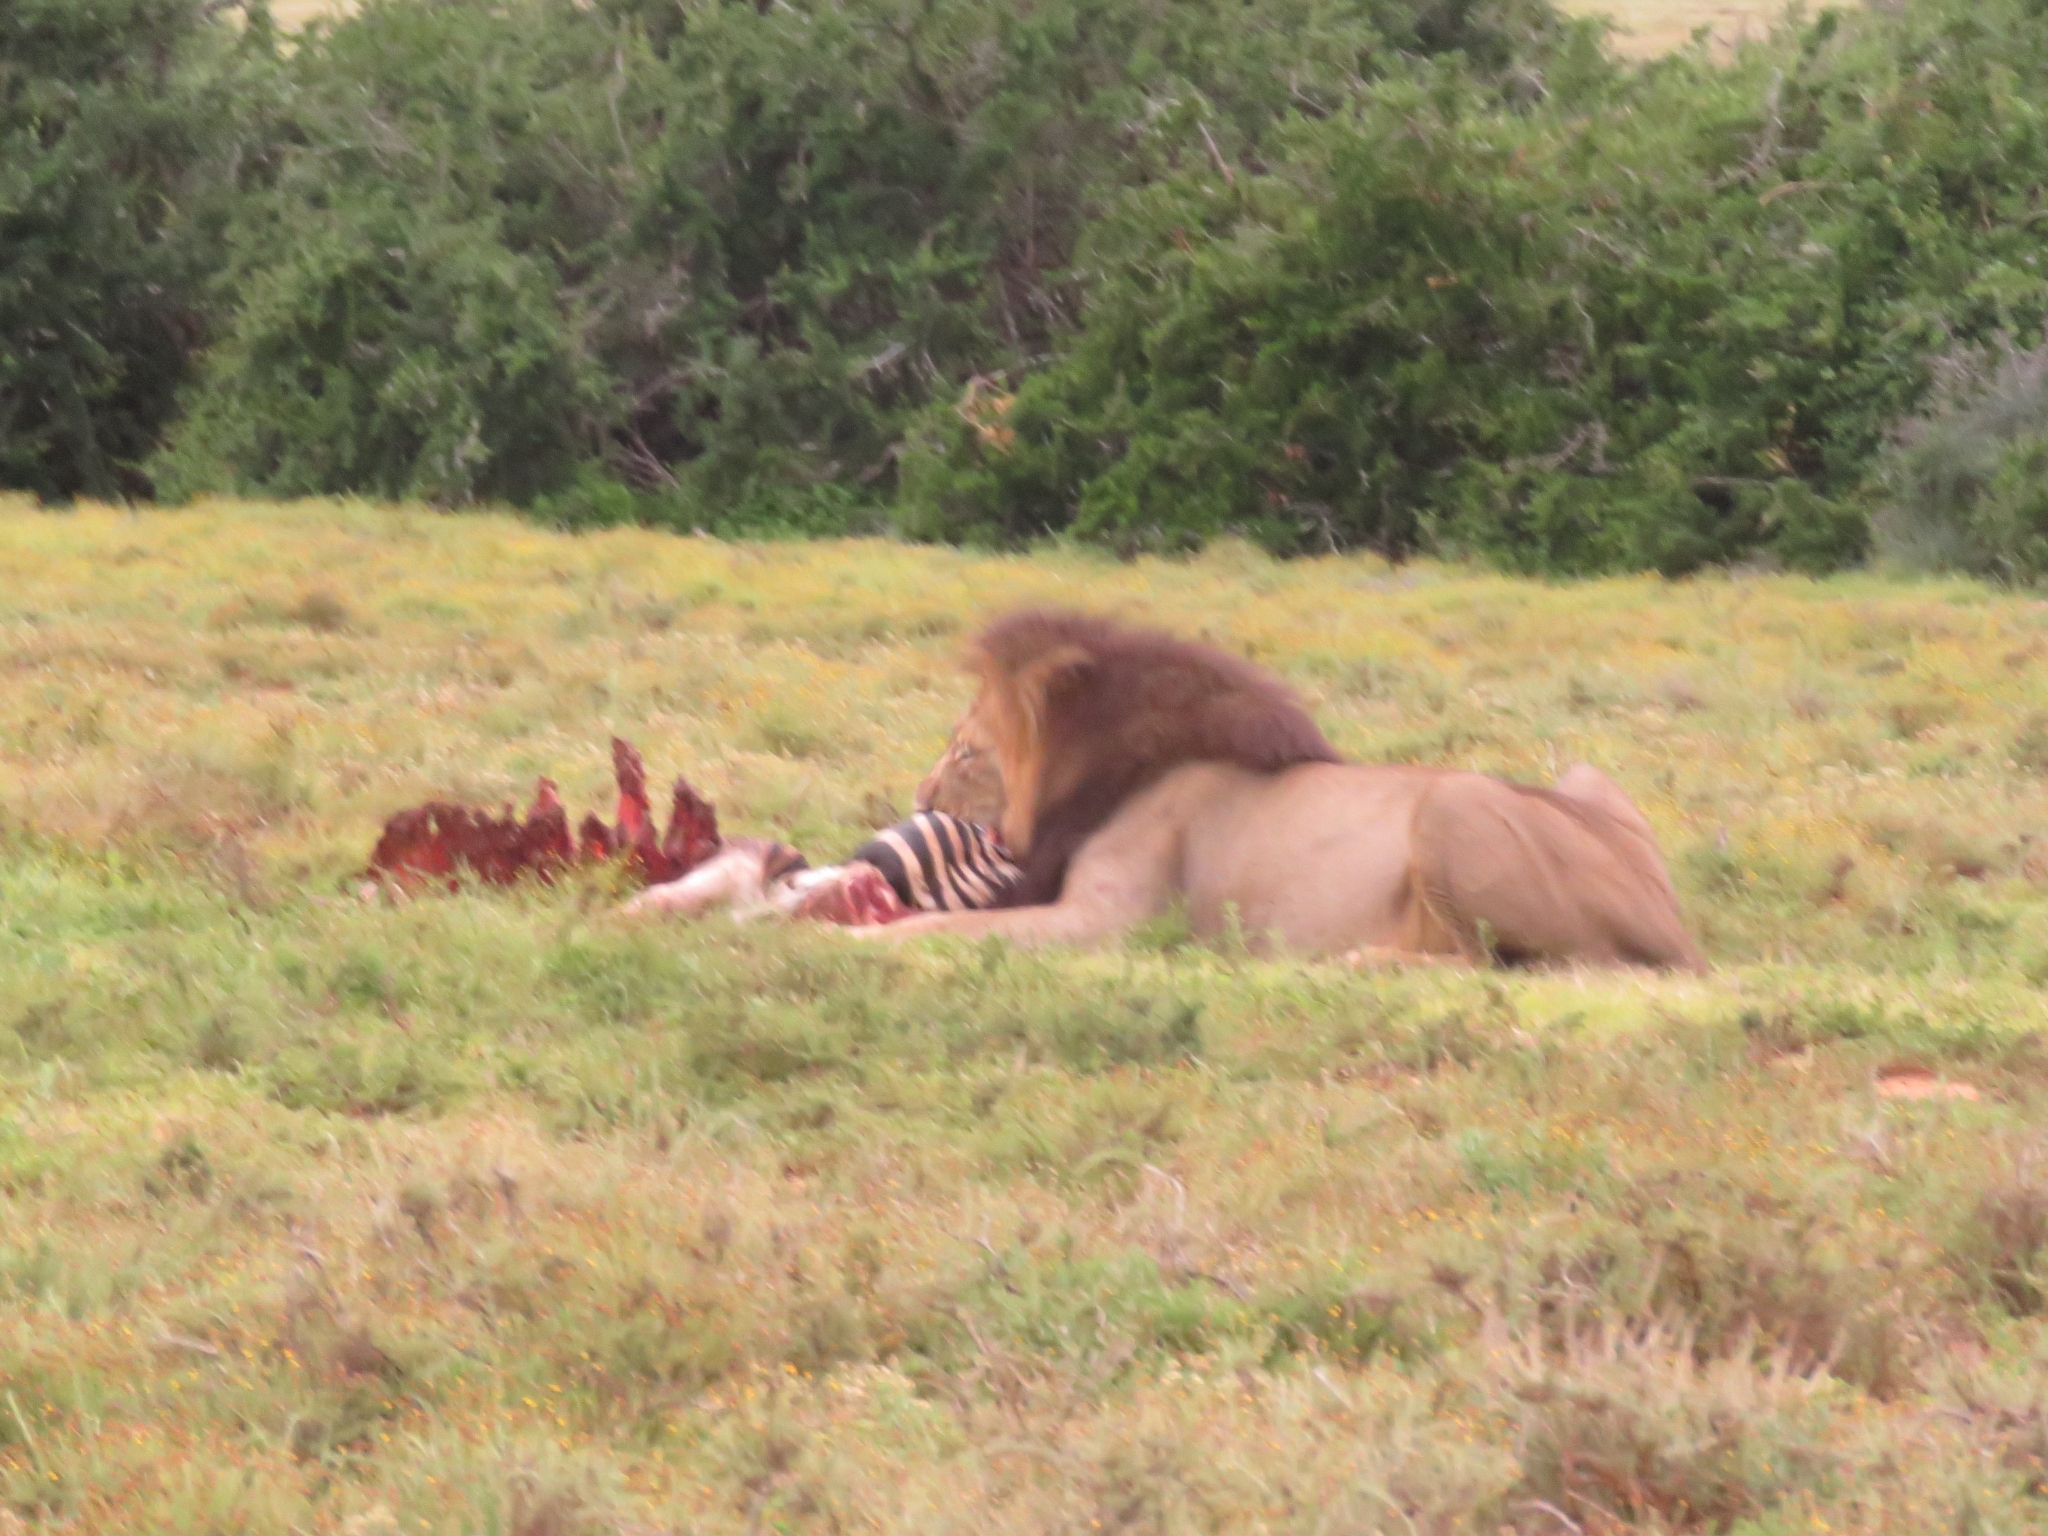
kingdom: Animalia
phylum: Chordata
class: Mammalia
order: Carnivora
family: Felidae
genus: Panthera
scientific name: Panthera leo
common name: Lion
